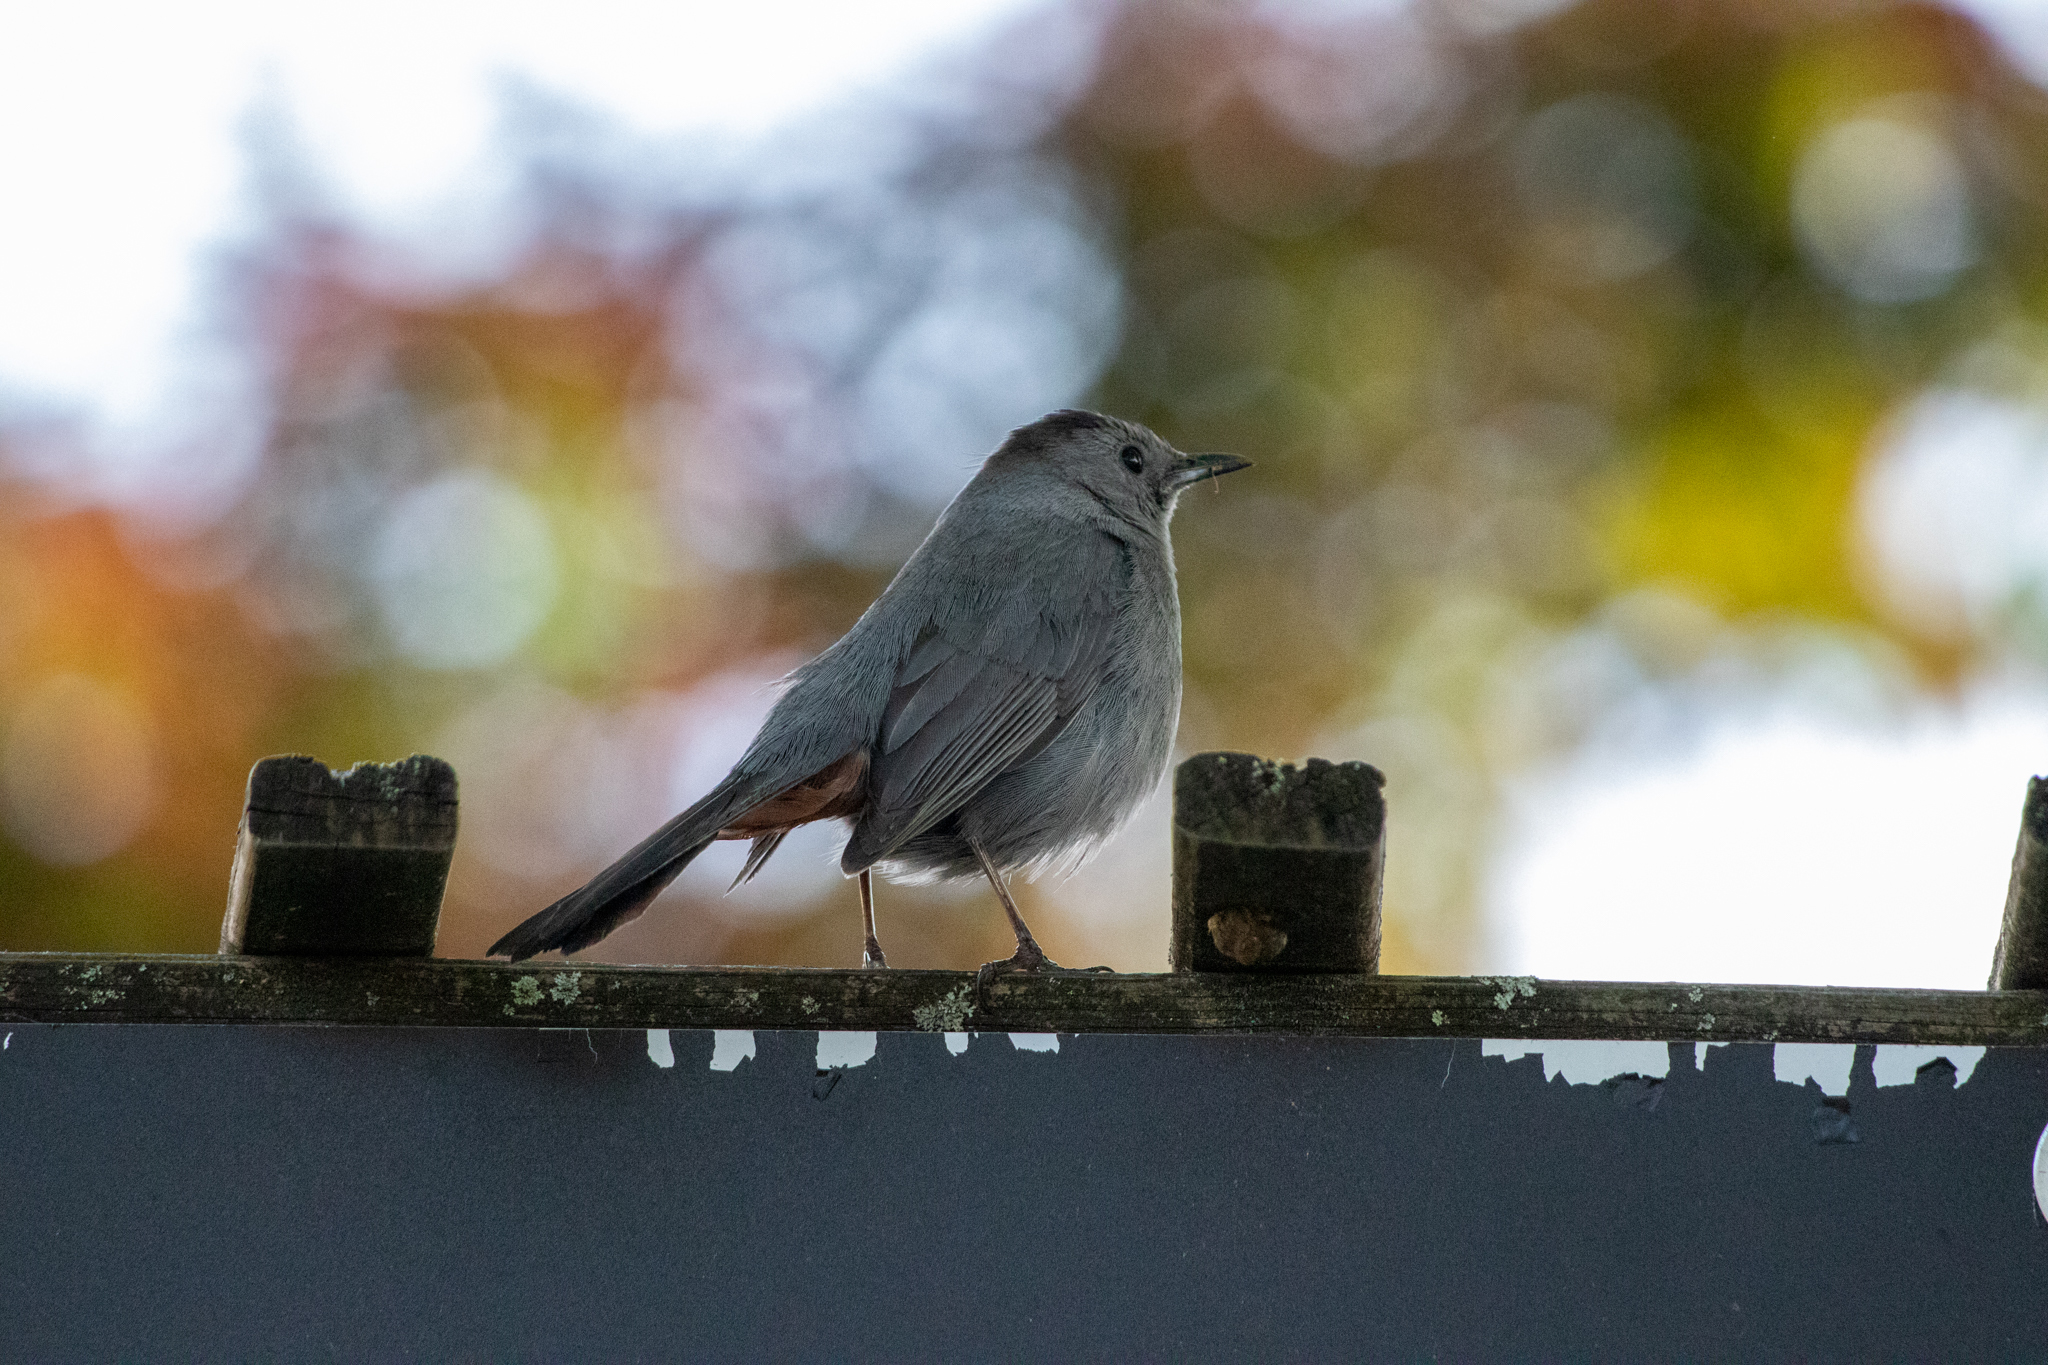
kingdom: Animalia
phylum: Chordata
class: Aves
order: Passeriformes
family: Mimidae
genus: Dumetella
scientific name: Dumetella carolinensis
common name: Gray catbird
